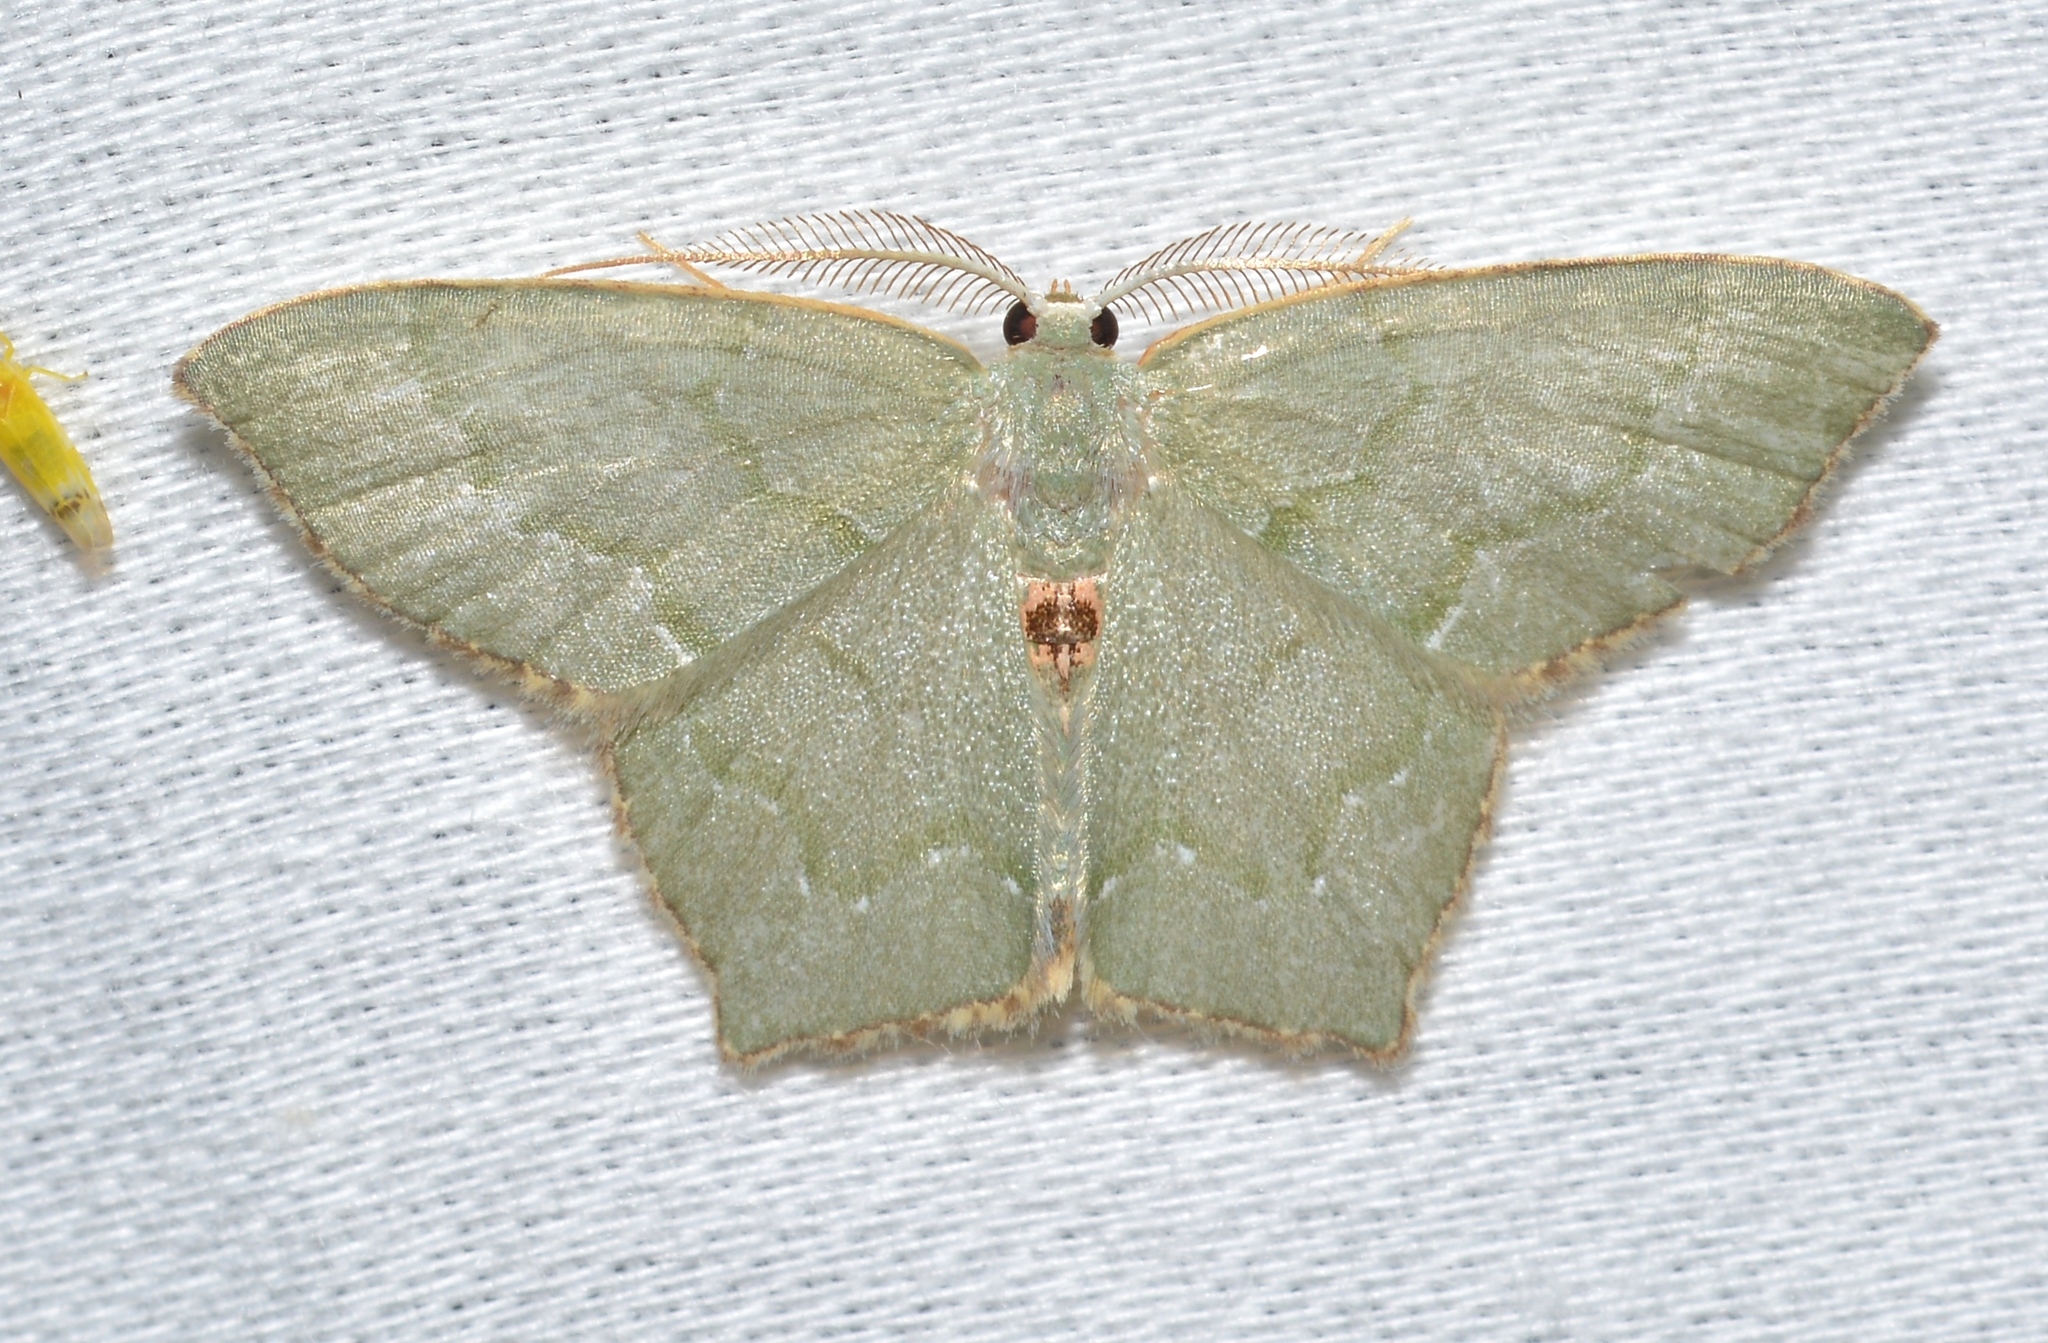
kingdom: Animalia
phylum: Arthropoda
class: Insecta
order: Lepidoptera
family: Geometridae
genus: Chloropteryx
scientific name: Chloropteryx tepperaria
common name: Angle winged emerald moth
